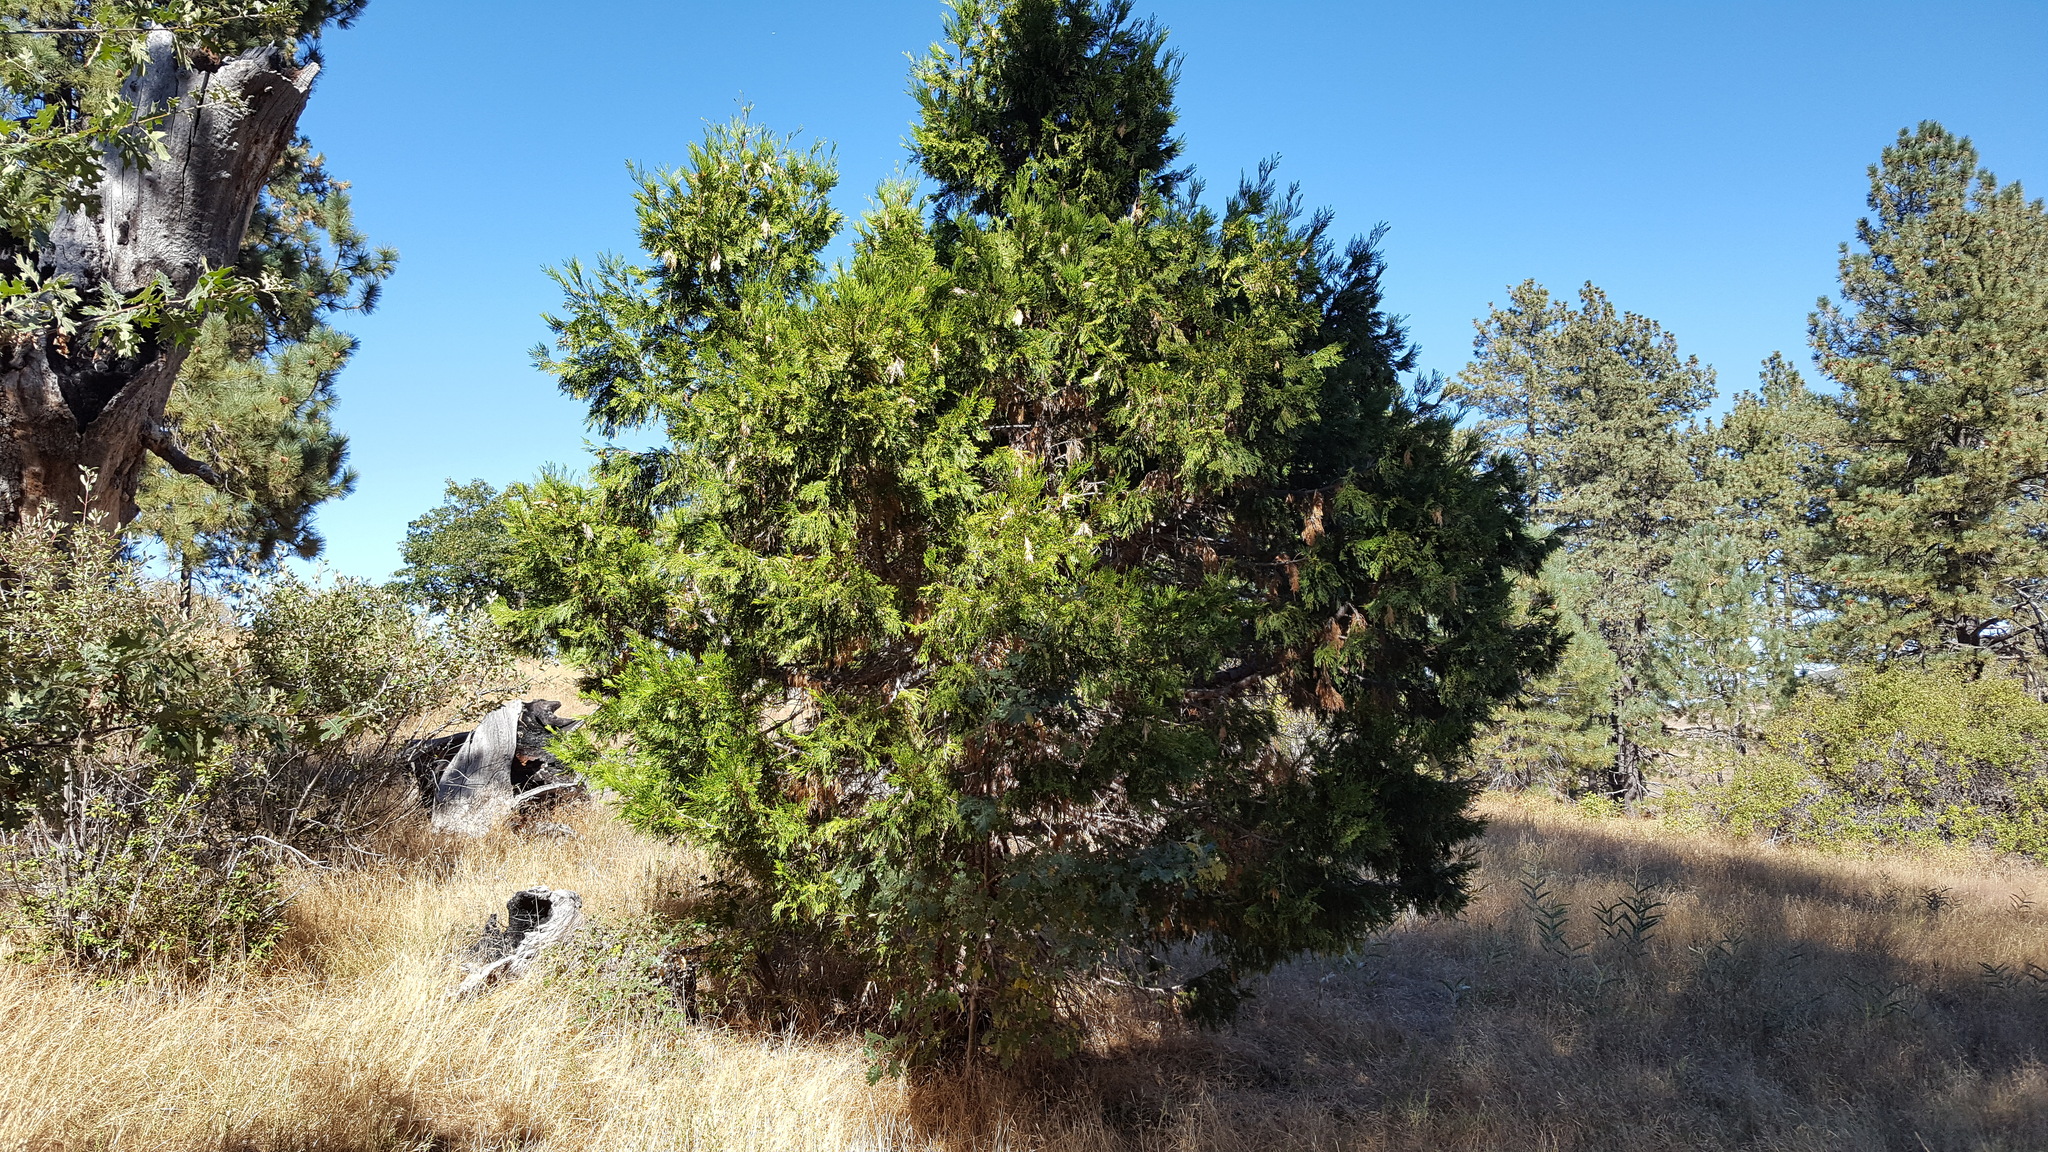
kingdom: Plantae
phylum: Tracheophyta
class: Pinopsida
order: Pinales
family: Cupressaceae
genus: Calocedrus
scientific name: Calocedrus decurrens
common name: Californian incense-cedar
